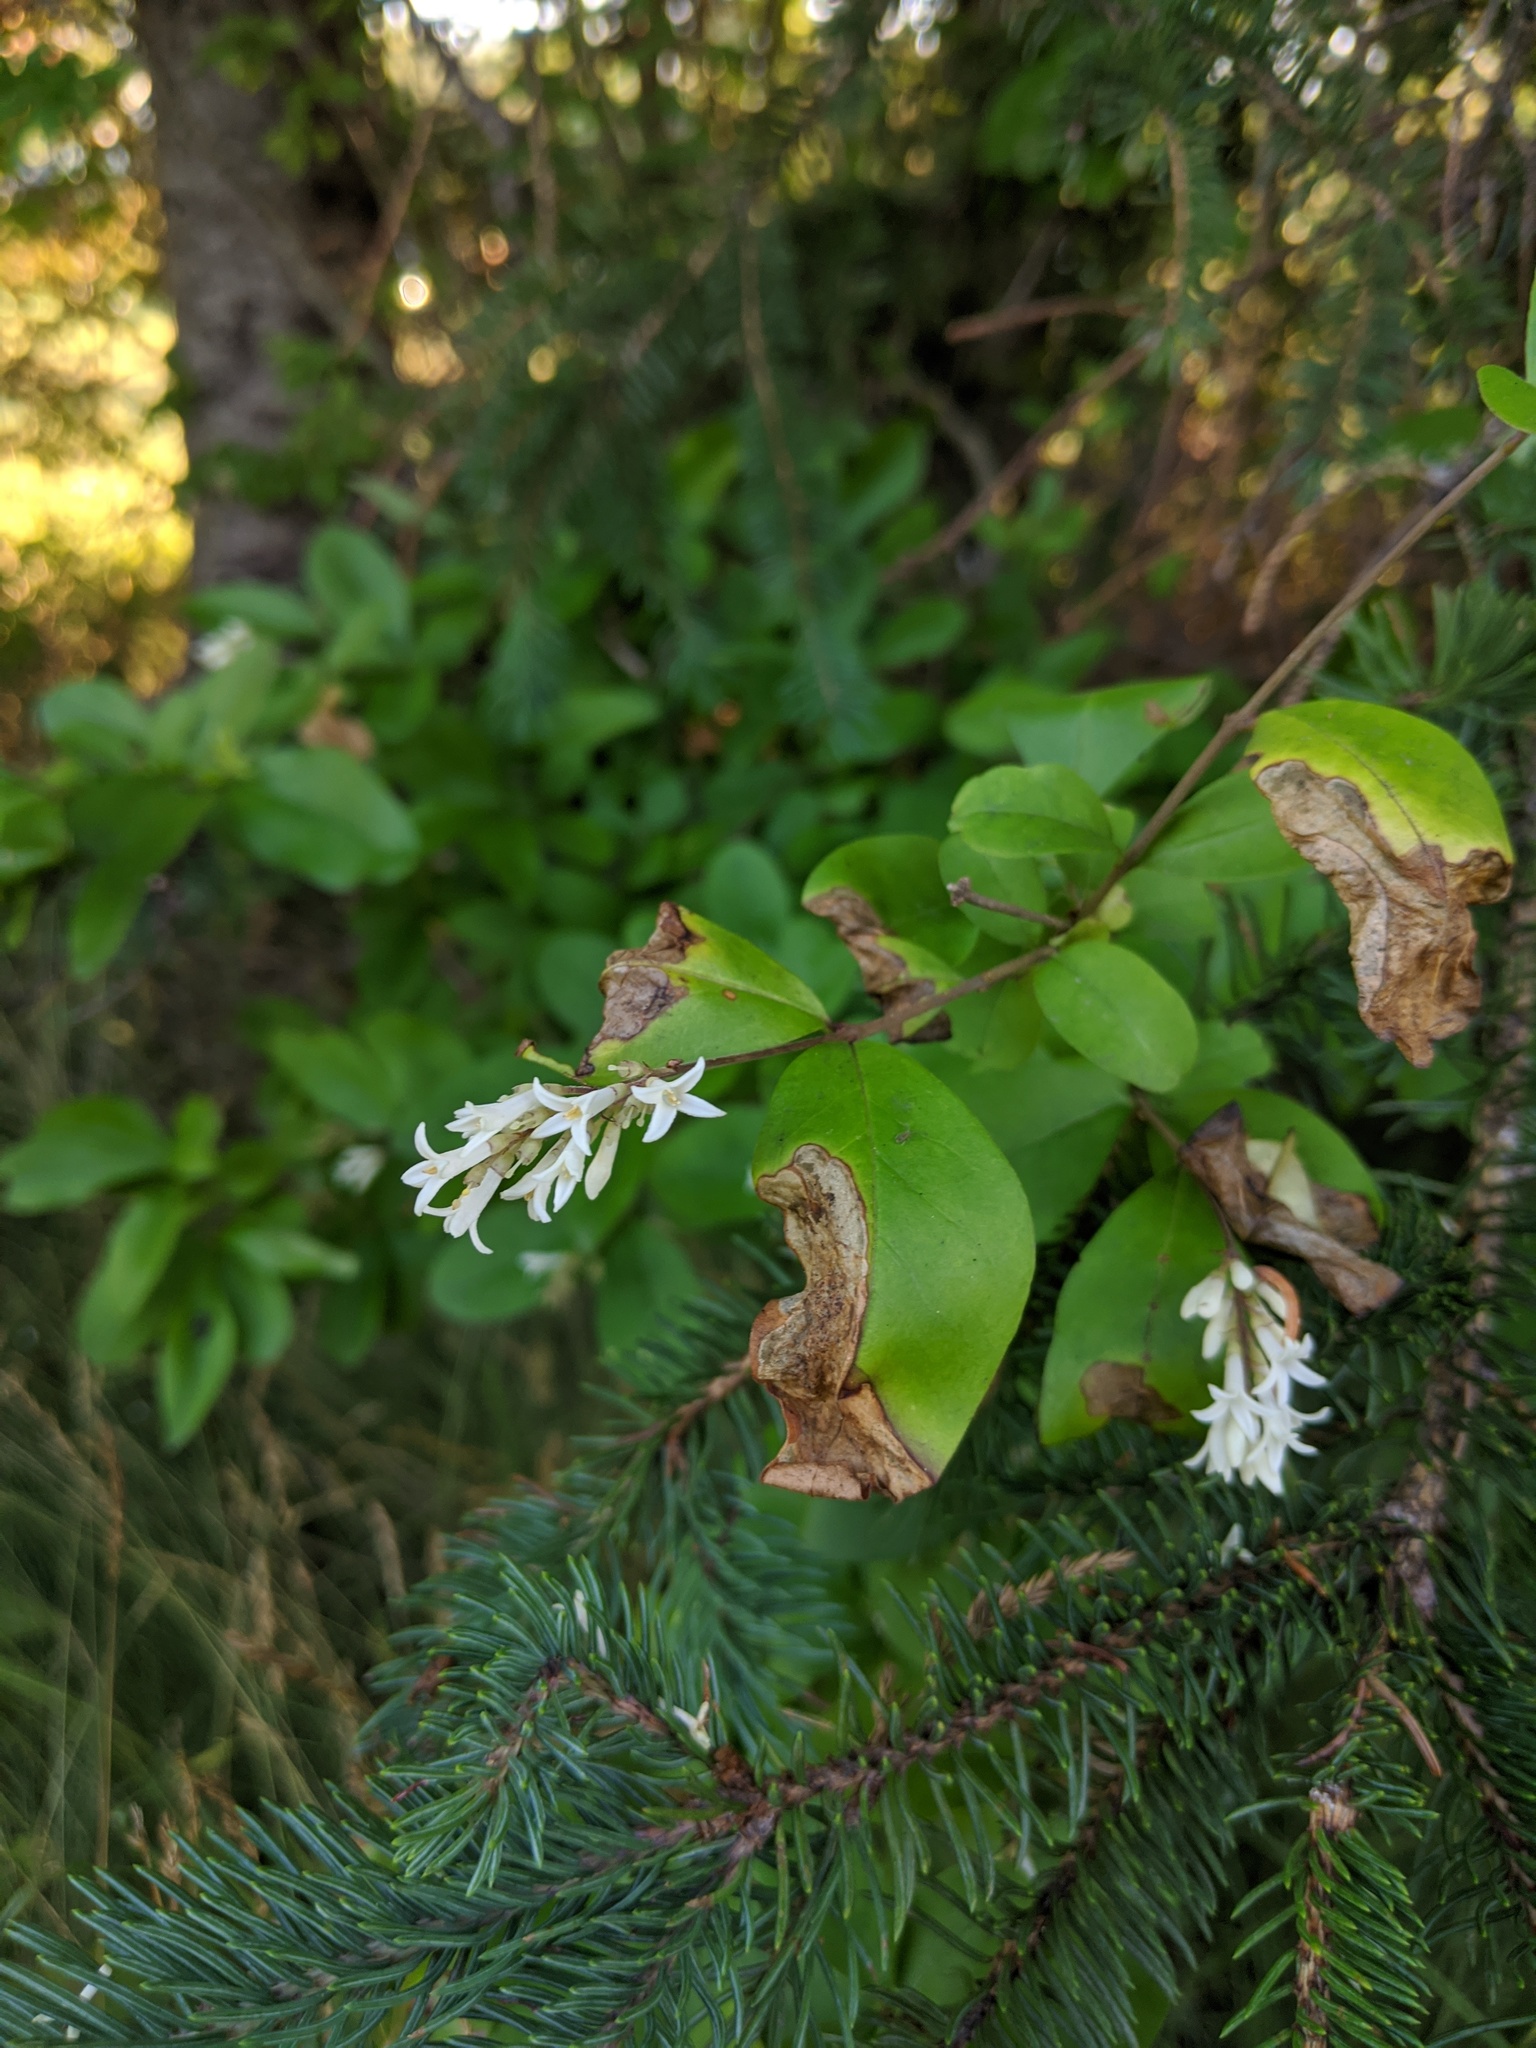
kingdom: Plantae
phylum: Tracheophyta
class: Magnoliopsida
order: Lamiales
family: Oleaceae
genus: Ligustrum
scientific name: Ligustrum ovalifolium
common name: California privet
